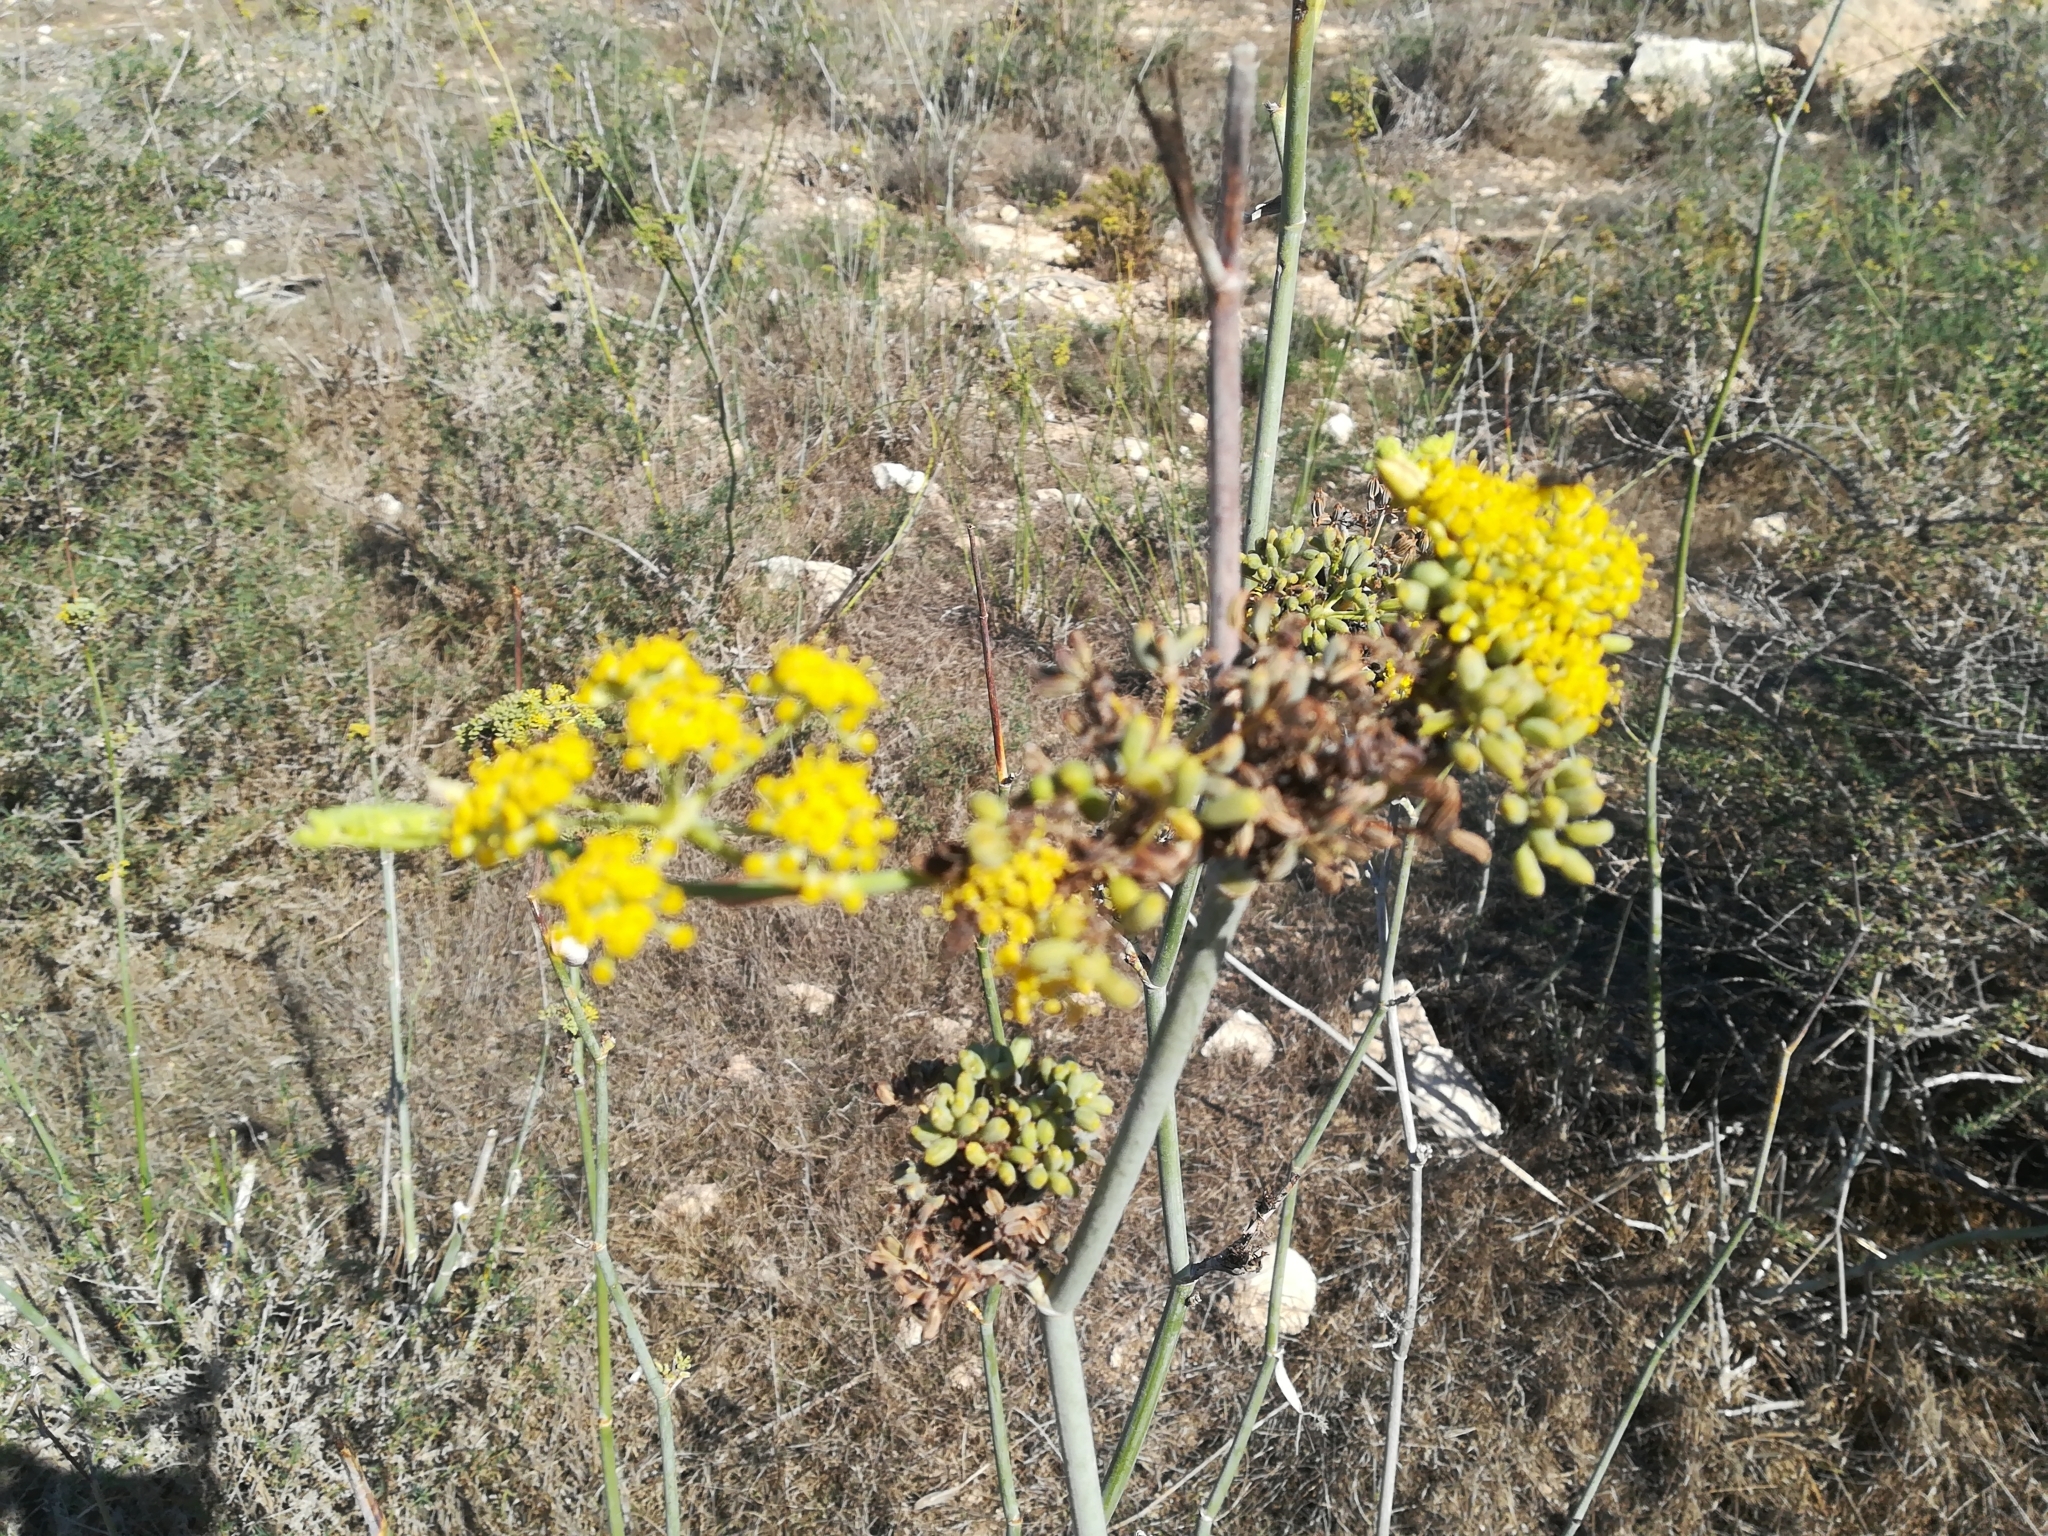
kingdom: Plantae
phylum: Tracheophyta
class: Magnoliopsida
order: Apiales
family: Apiaceae
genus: Foeniculum
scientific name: Foeniculum vulgare
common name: Fennel
